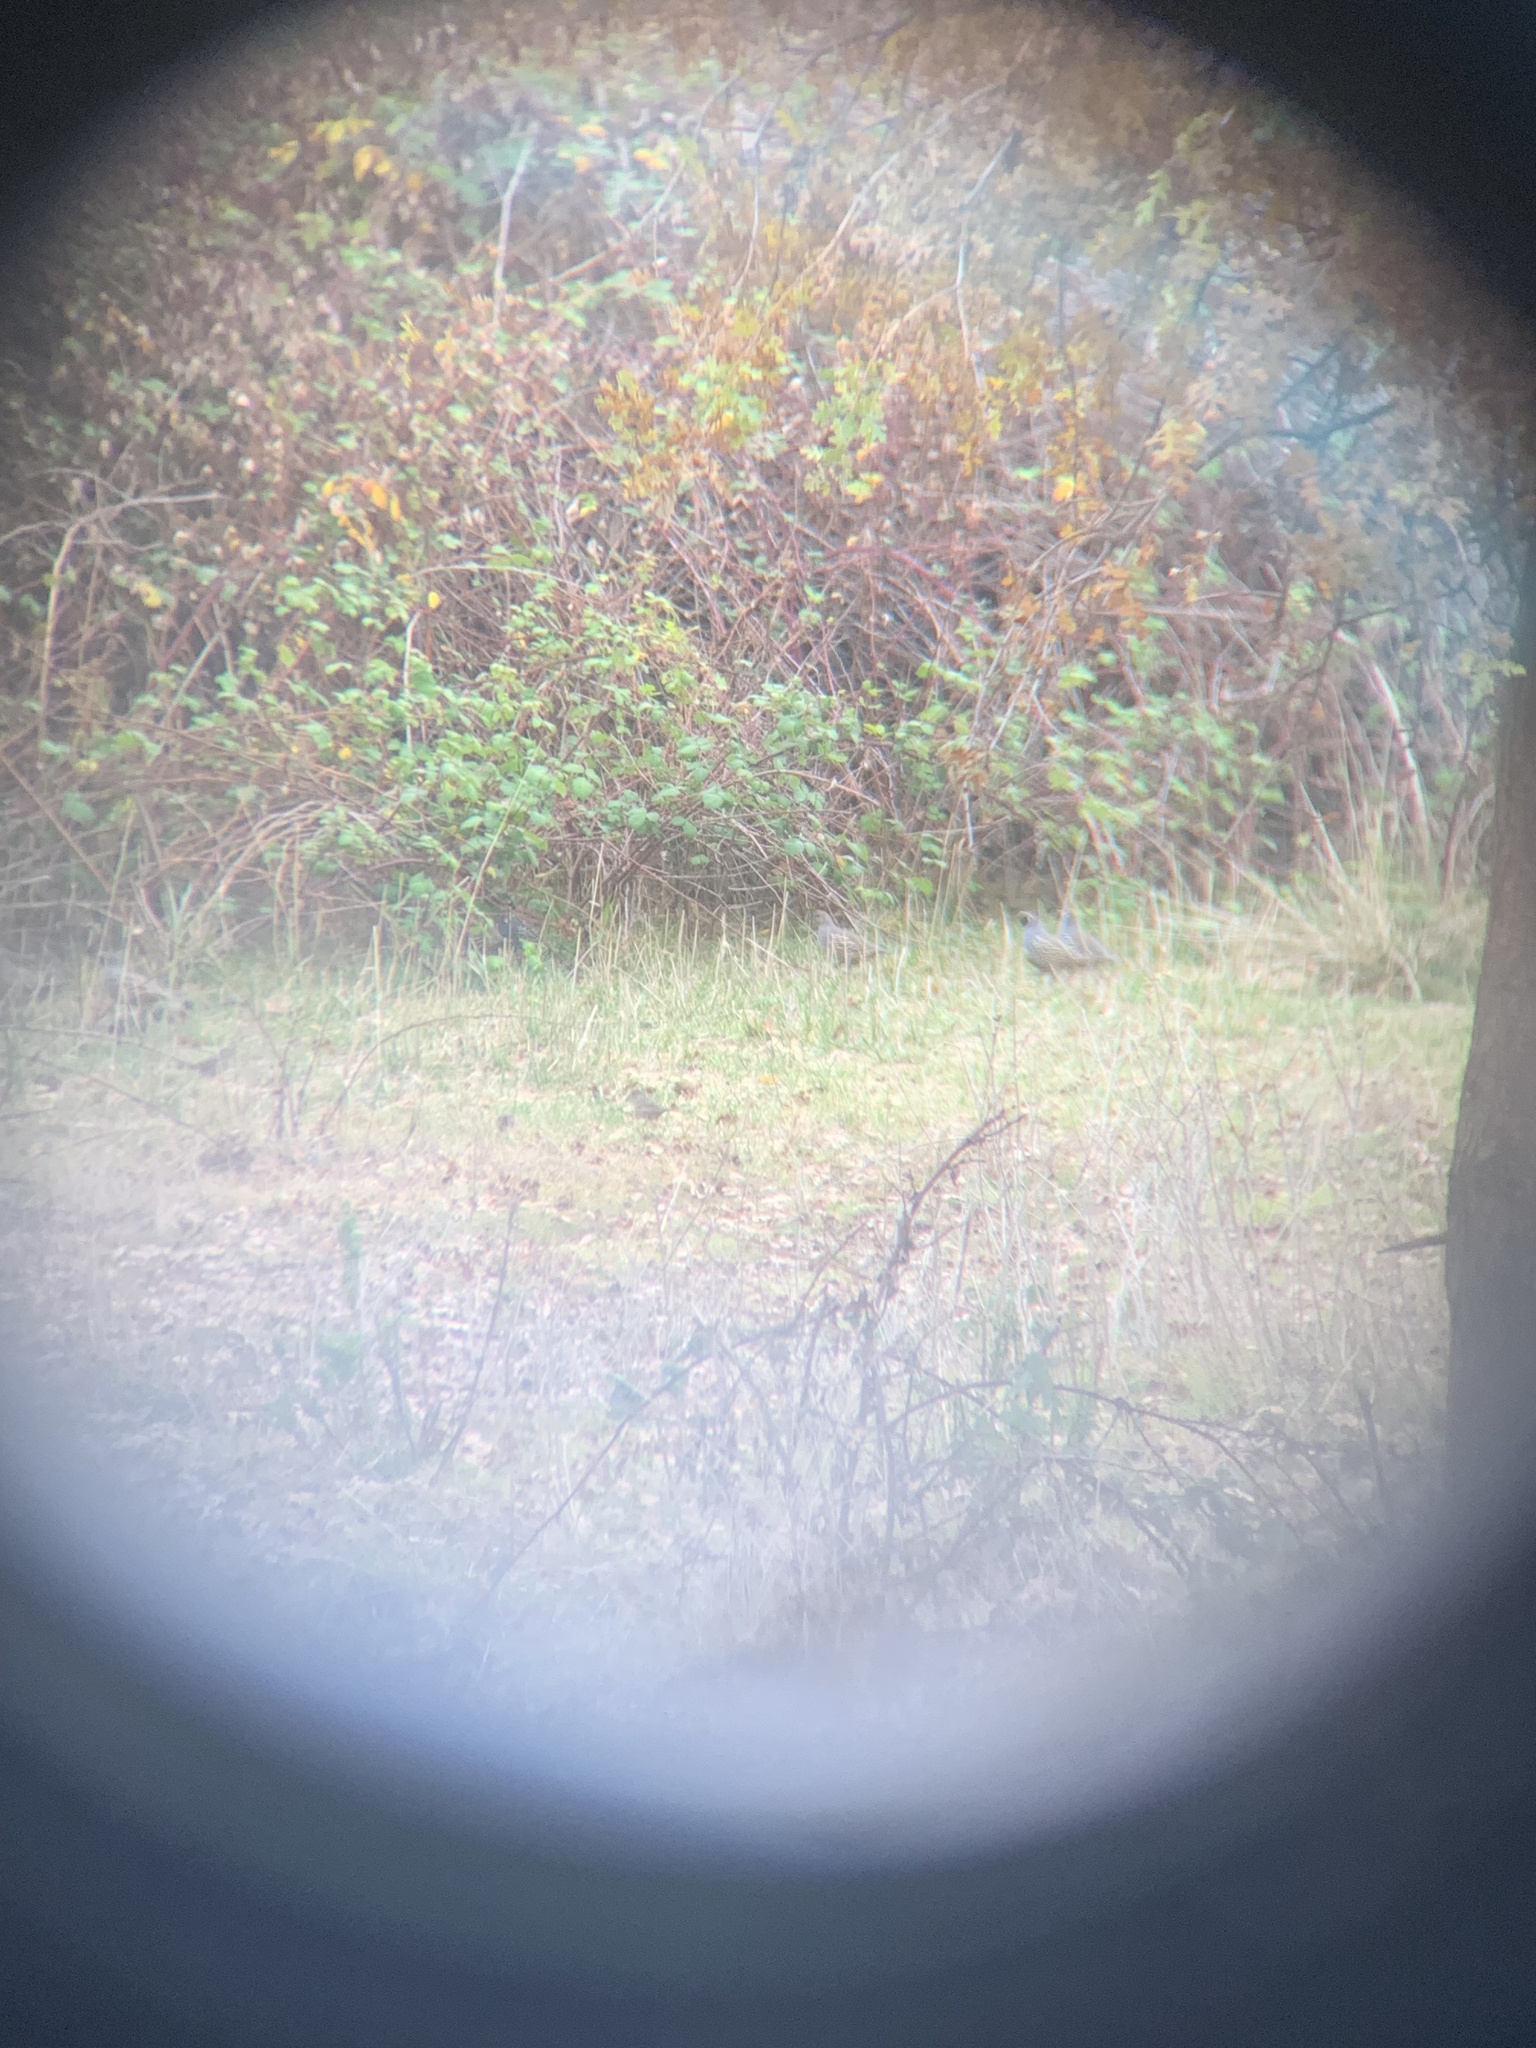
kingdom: Animalia
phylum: Chordata
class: Aves
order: Galliformes
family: Odontophoridae
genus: Callipepla
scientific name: Callipepla californica
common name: California quail
